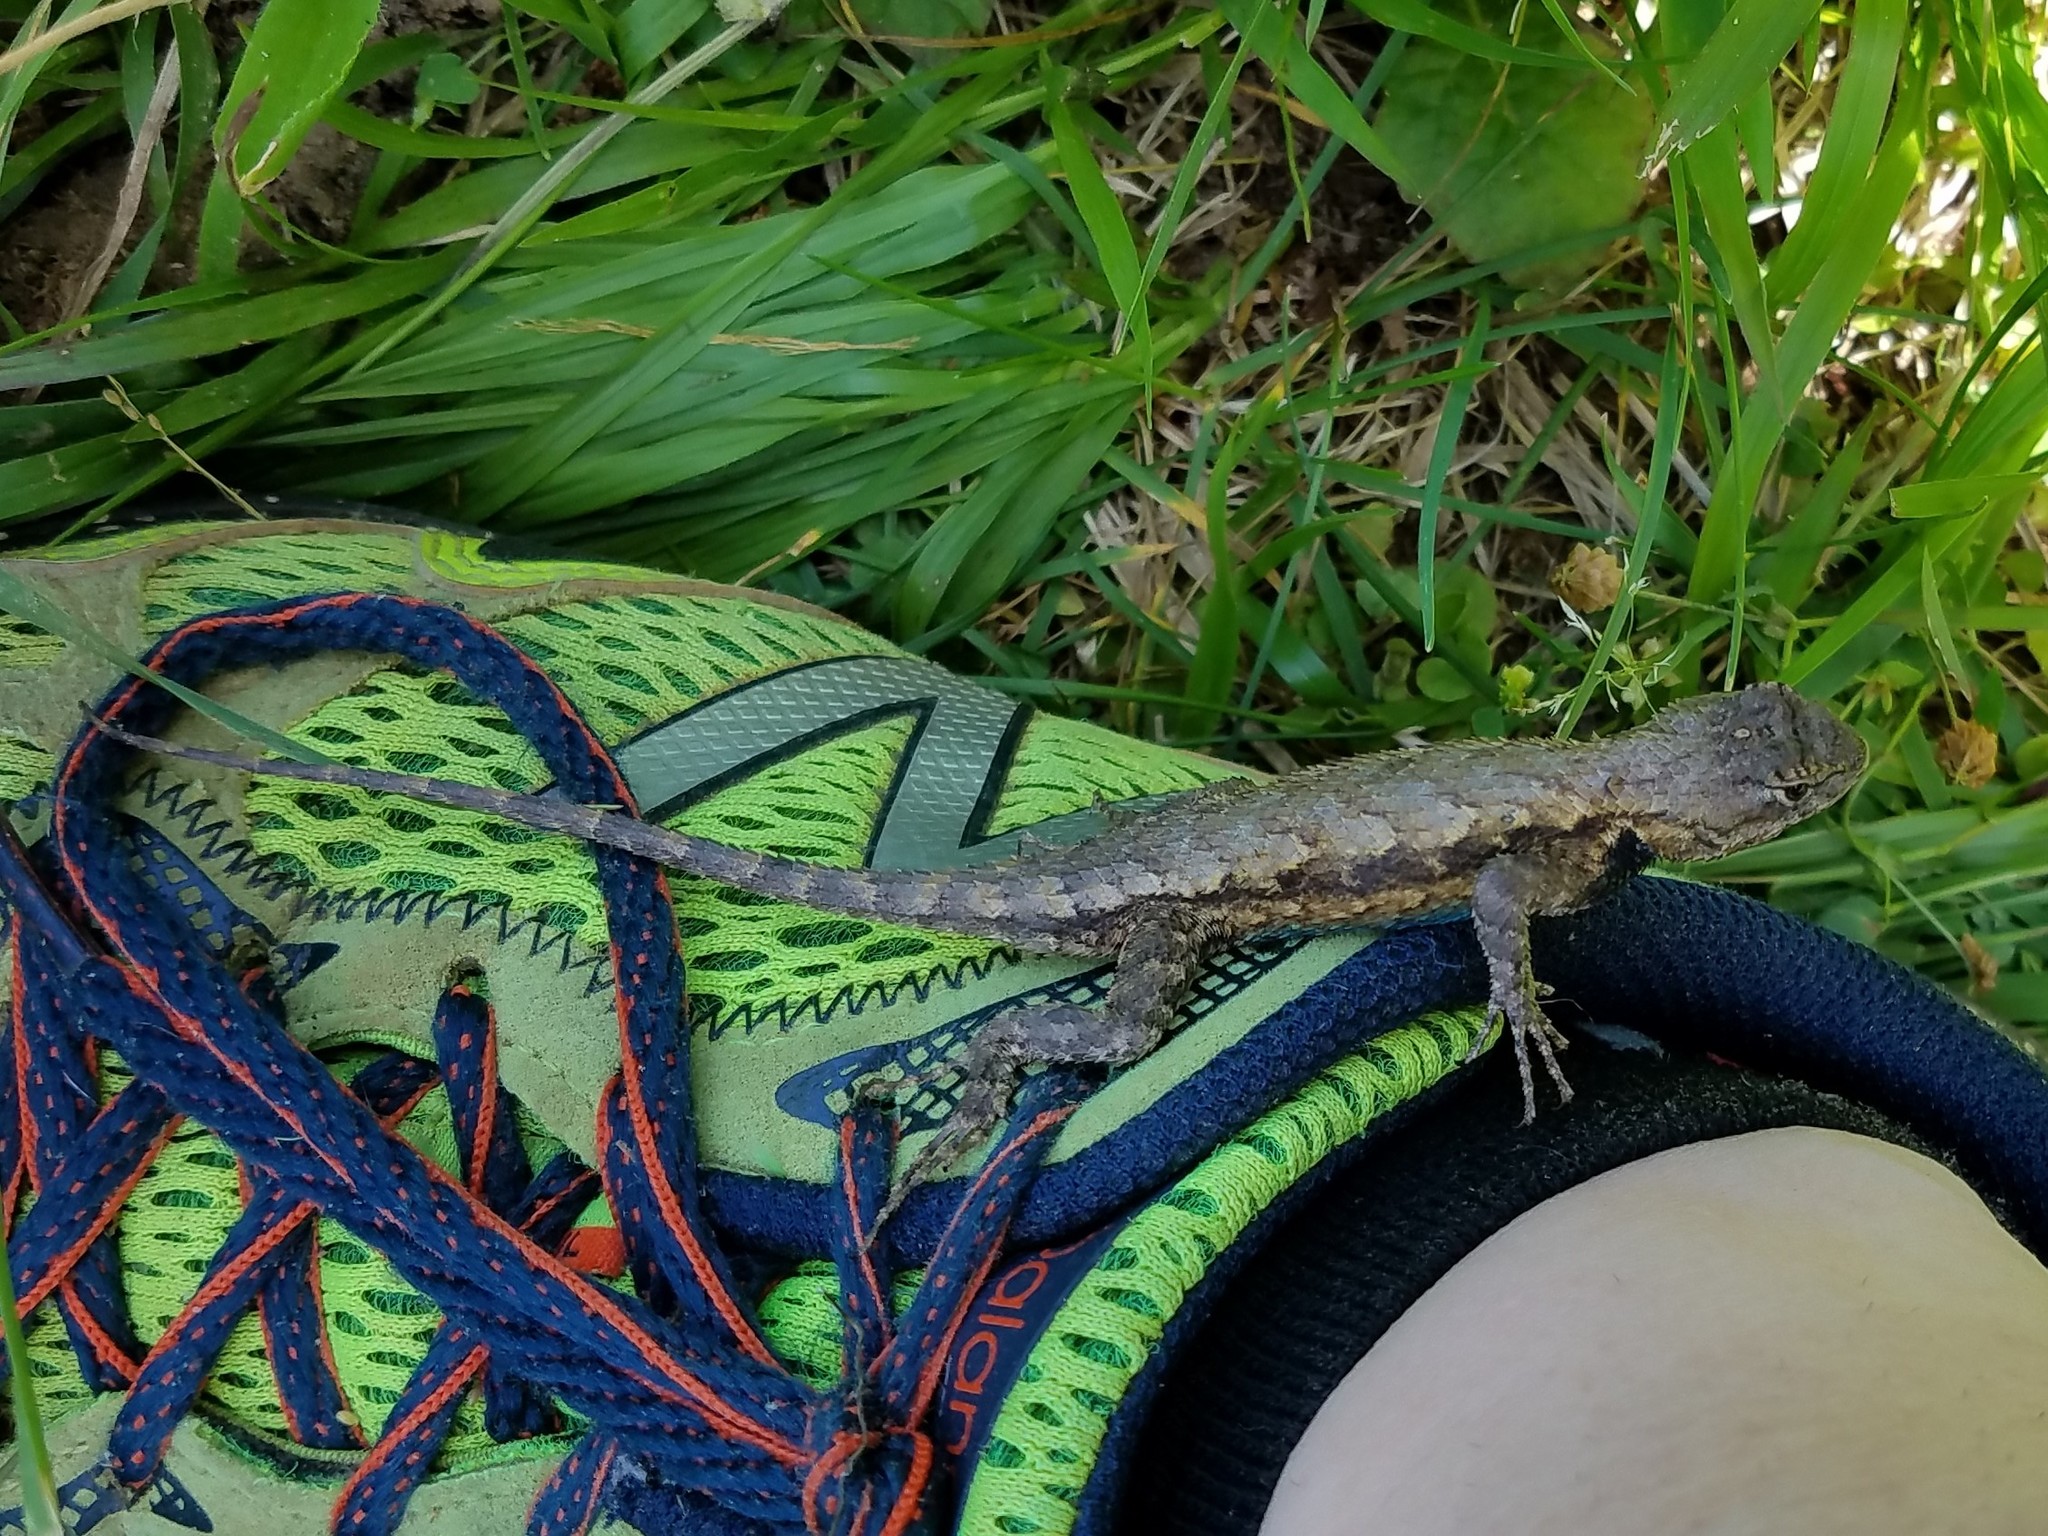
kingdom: Animalia
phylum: Chordata
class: Squamata
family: Phrynosomatidae
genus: Sceloporus
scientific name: Sceloporus undulatus
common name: Eastern fence lizard
